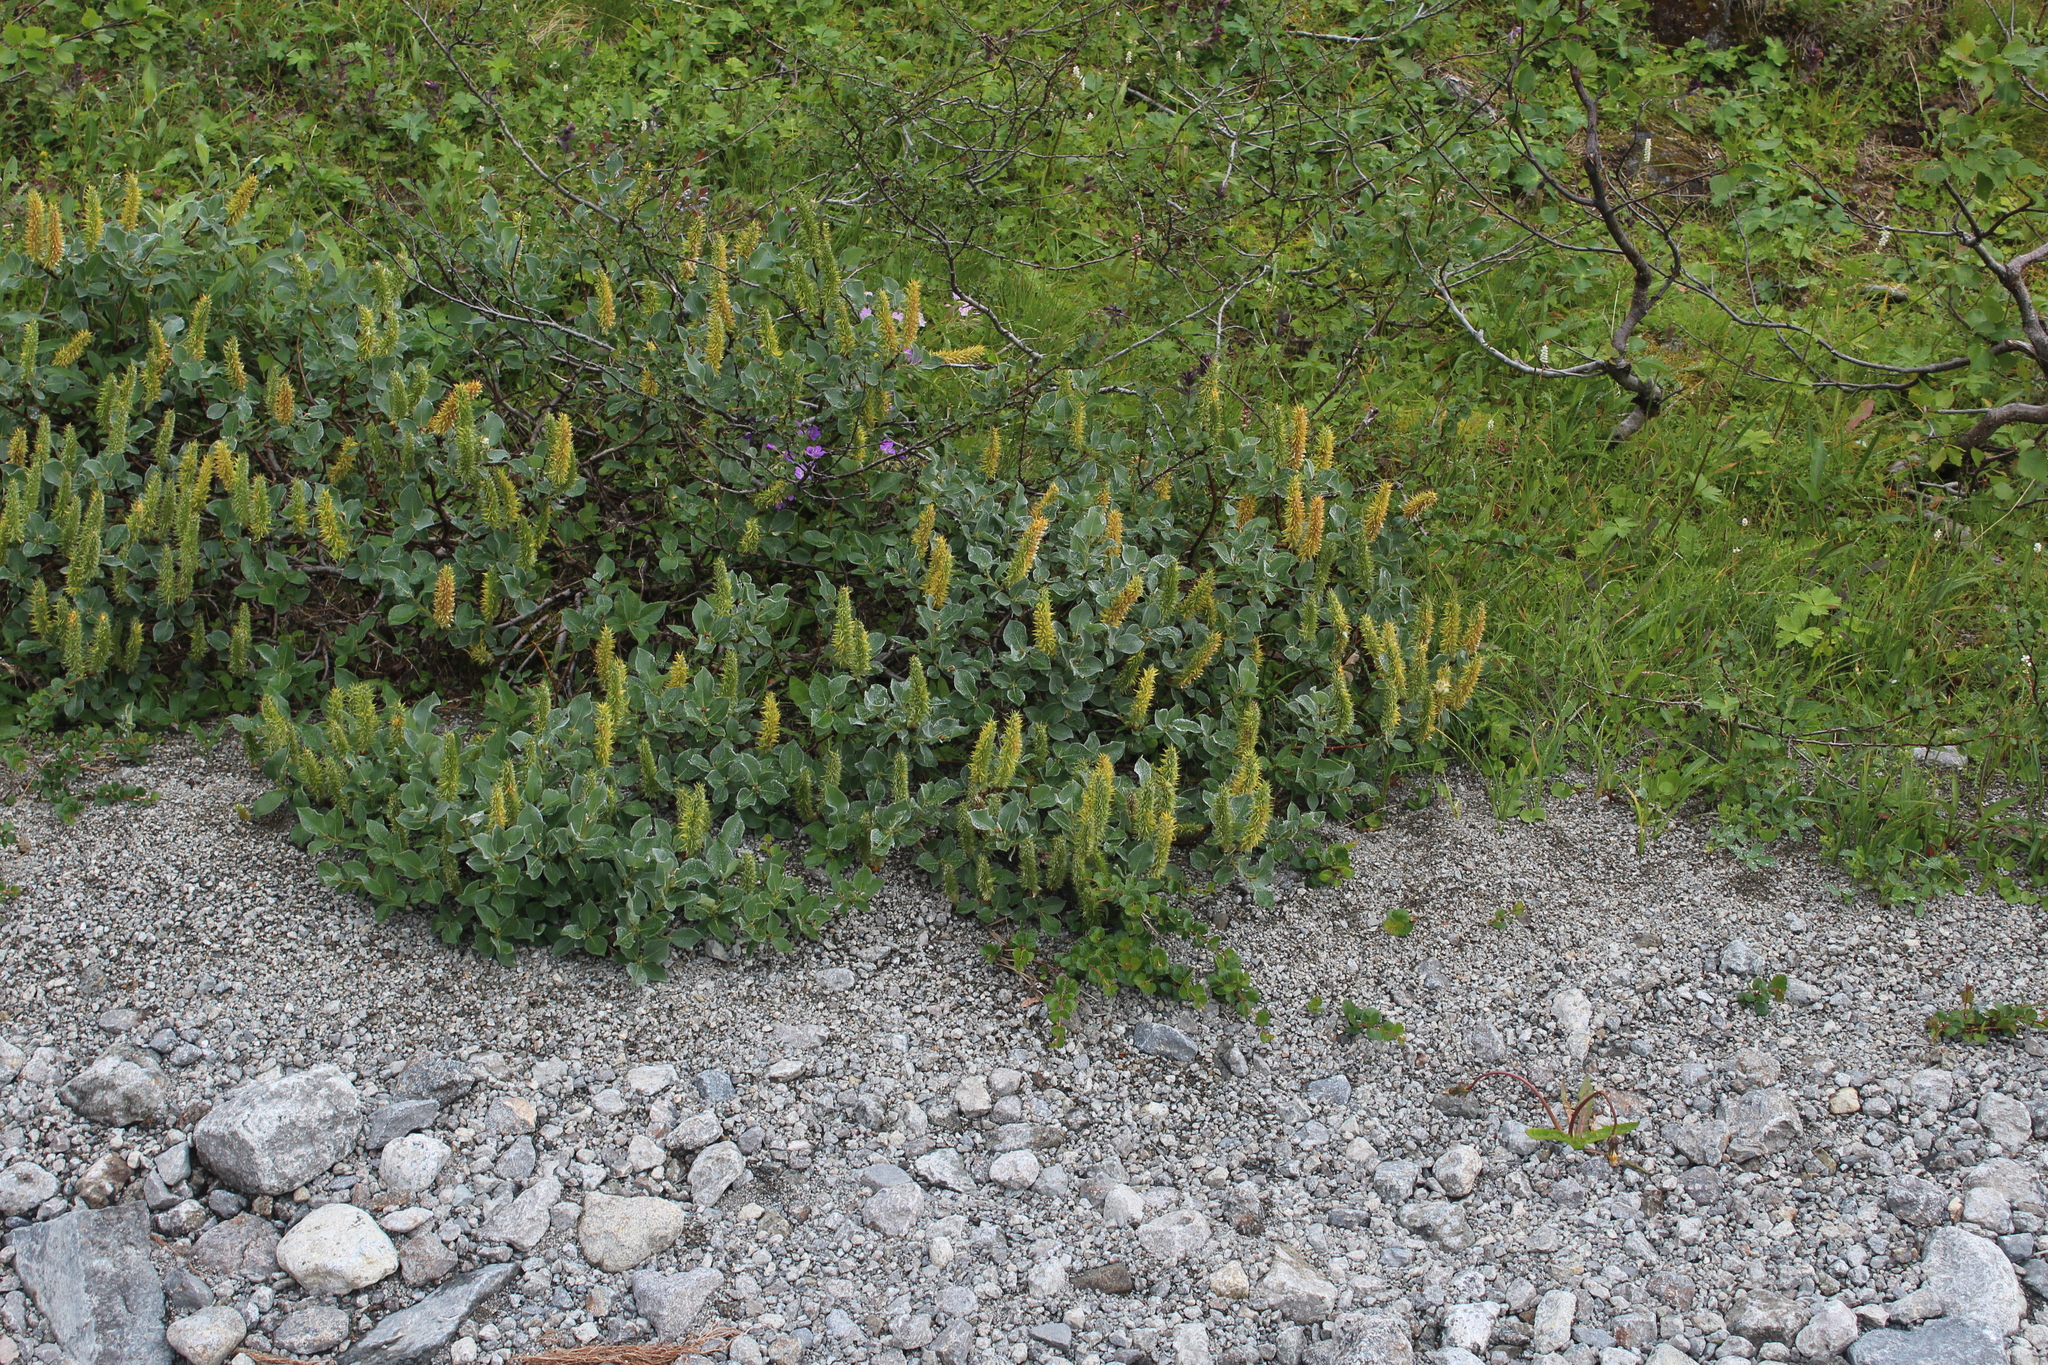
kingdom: Plantae
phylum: Tracheophyta
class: Magnoliopsida
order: Malpighiales
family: Salicaceae
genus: Salix
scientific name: Salix lanata
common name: Woolly willow
